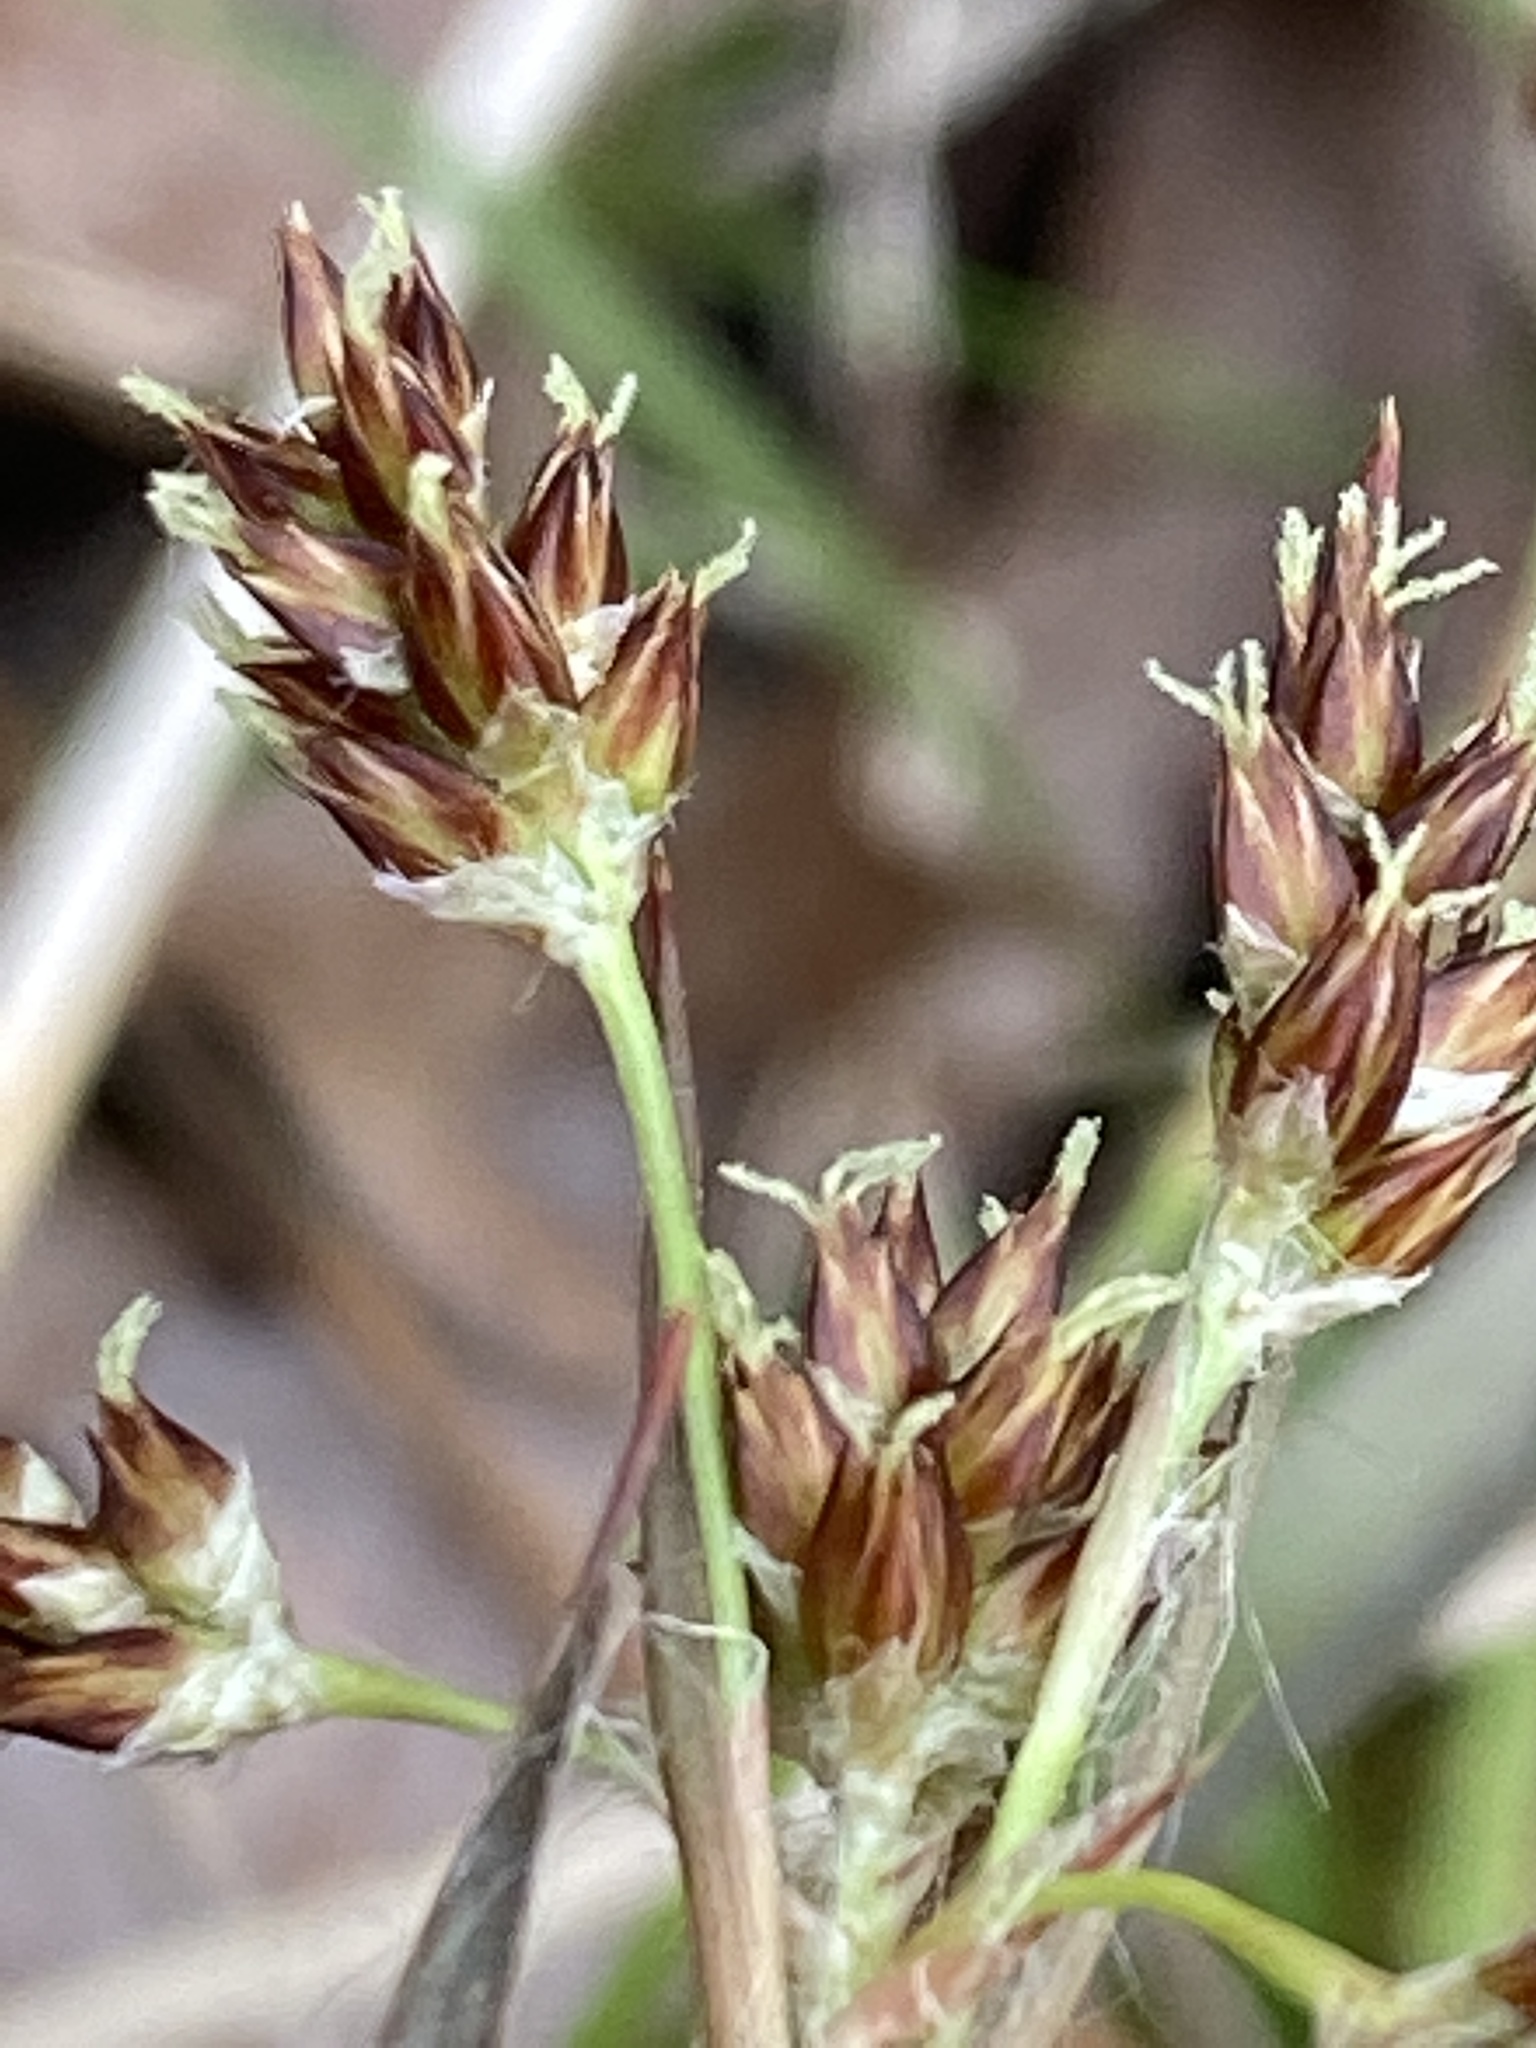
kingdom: Plantae
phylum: Tracheophyta
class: Liliopsida
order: Poales
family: Juncaceae
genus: Luzula
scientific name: Luzula multiflora
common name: Heath wood-rush
